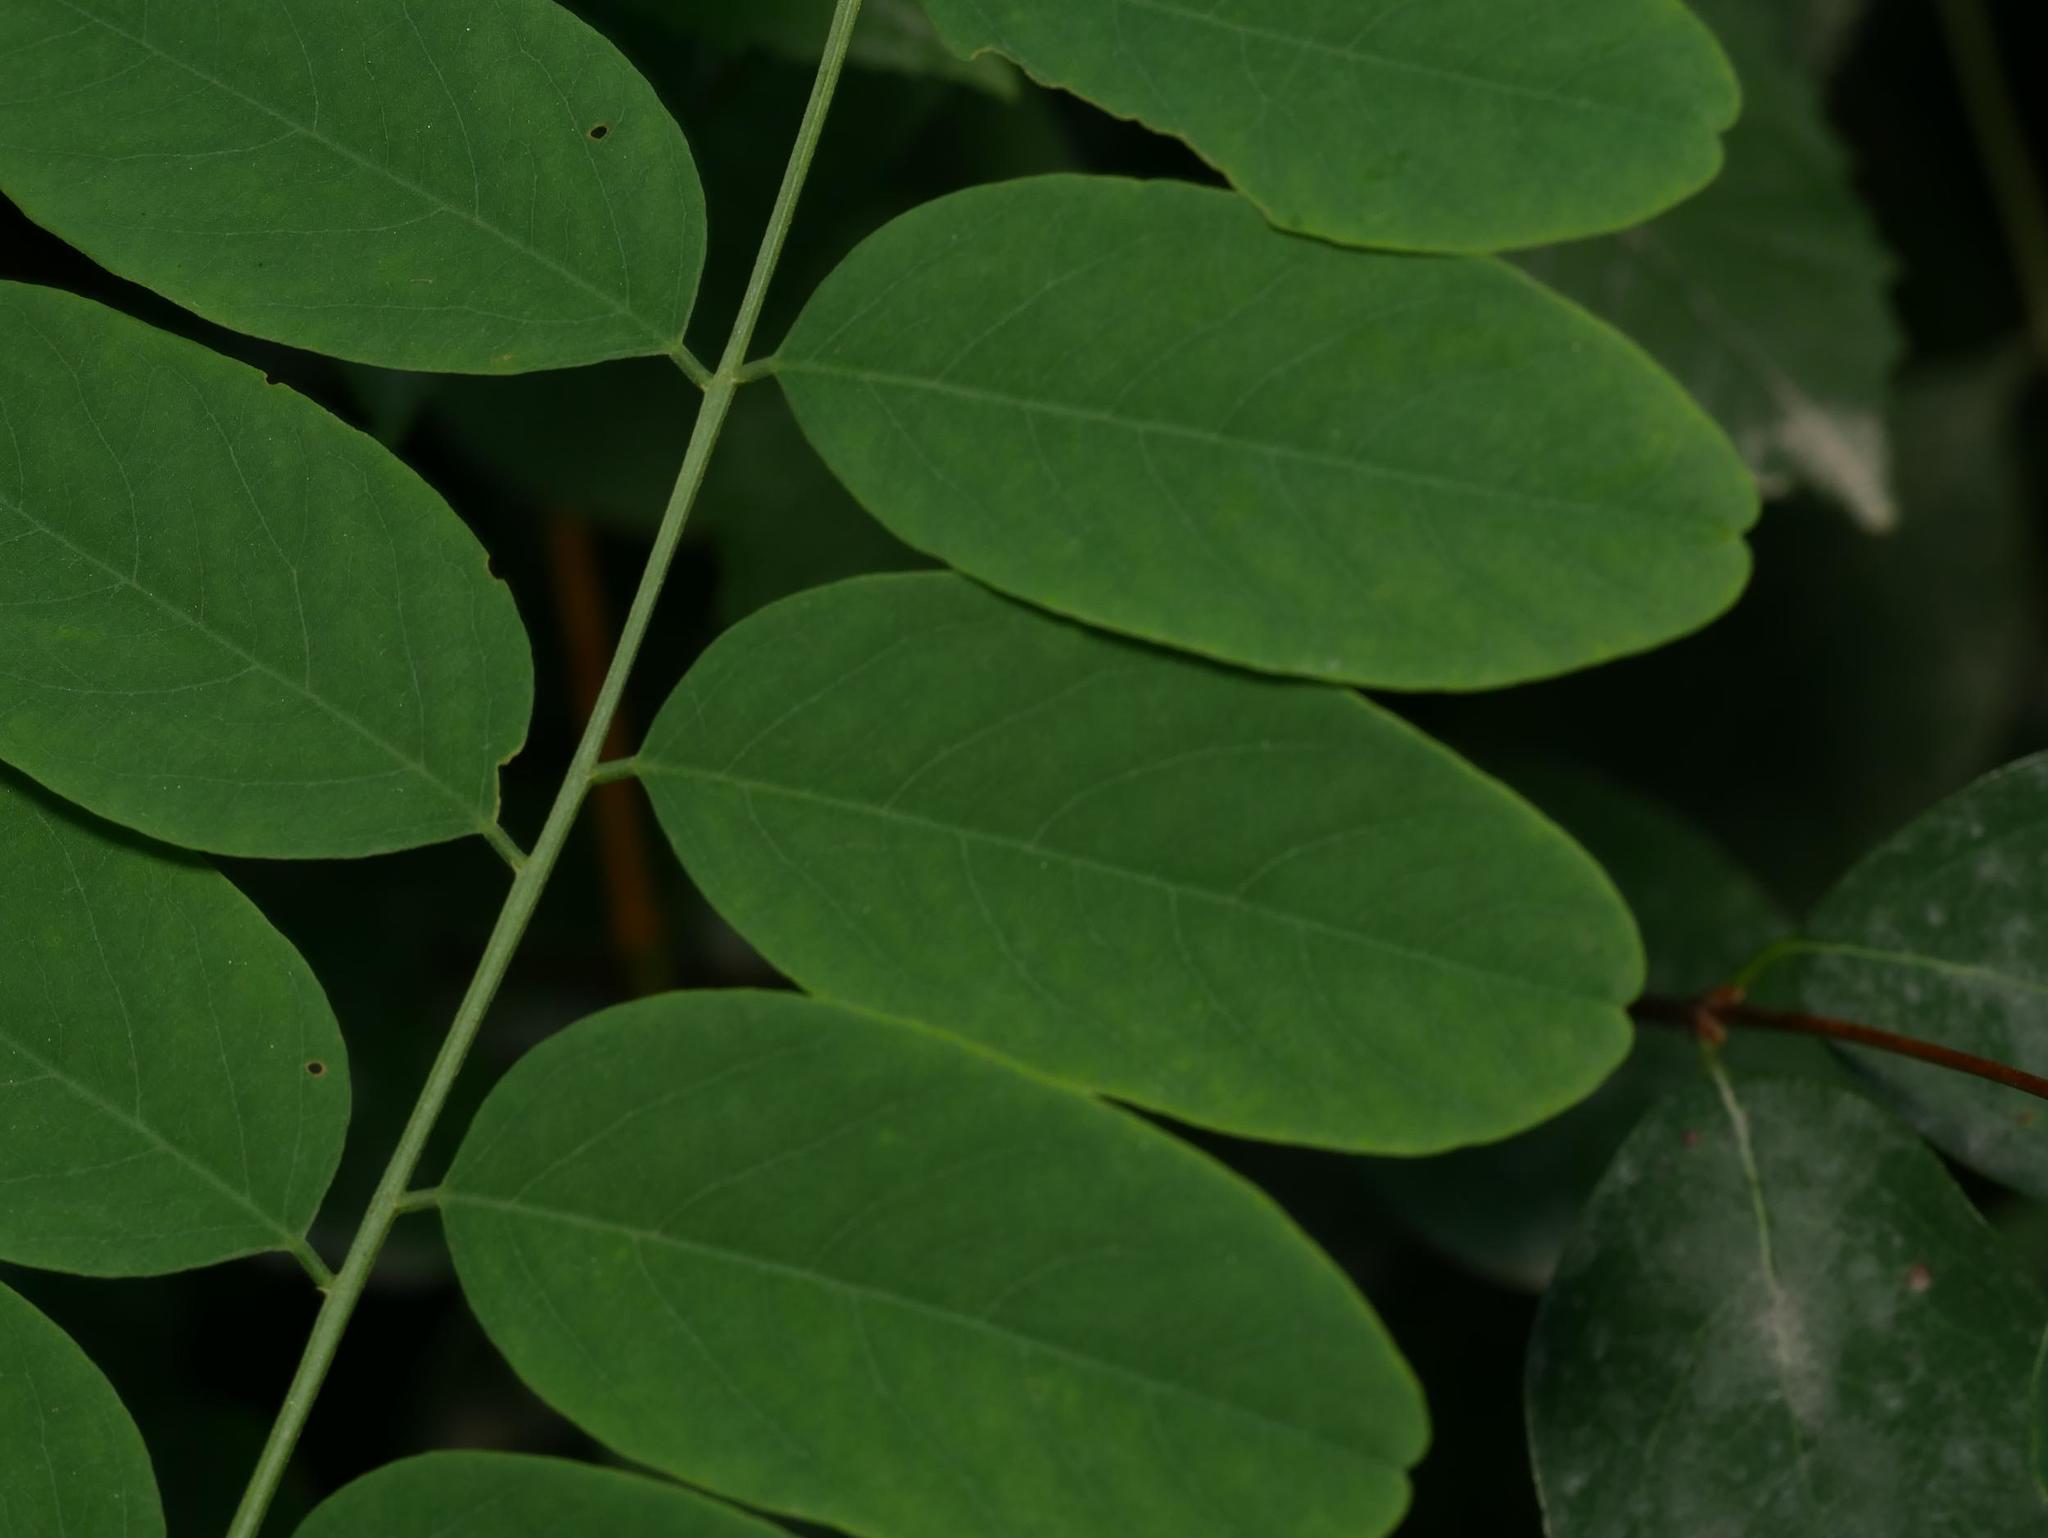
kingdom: Plantae
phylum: Tracheophyta
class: Magnoliopsida
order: Fabales
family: Fabaceae
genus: Robinia
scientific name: Robinia pseudoacacia
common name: Black locust
